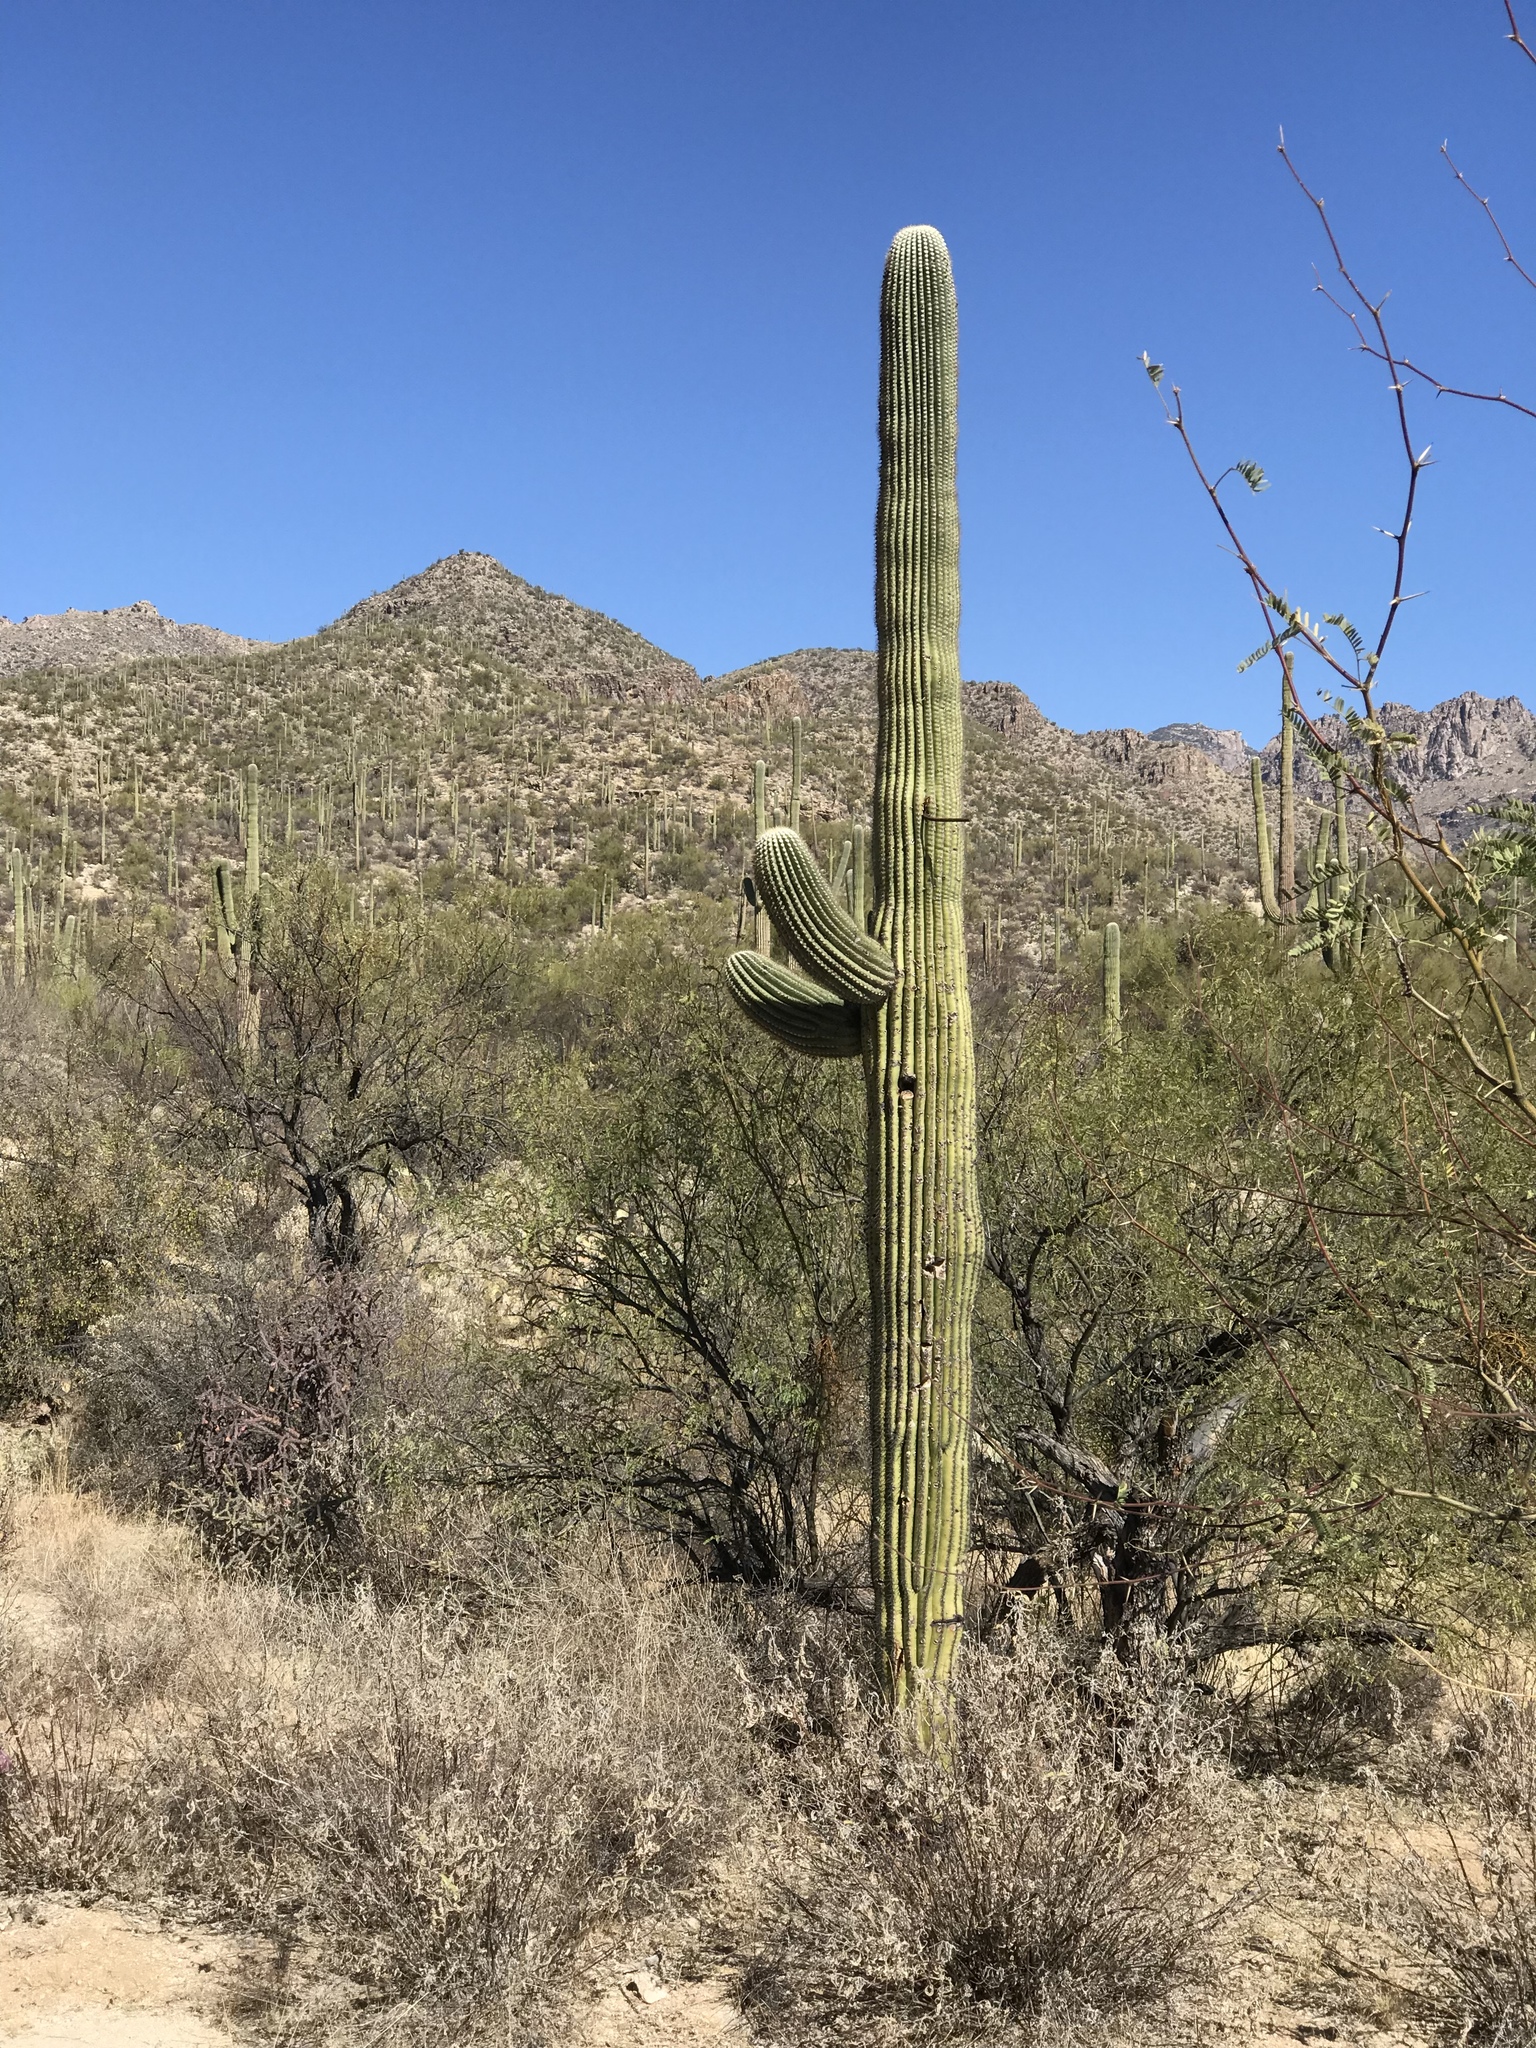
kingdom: Plantae
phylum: Tracheophyta
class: Magnoliopsida
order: Caryophyllales
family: Cactaceae
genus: Carnegiea
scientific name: Carnegiea gigantea
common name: Saguaro
